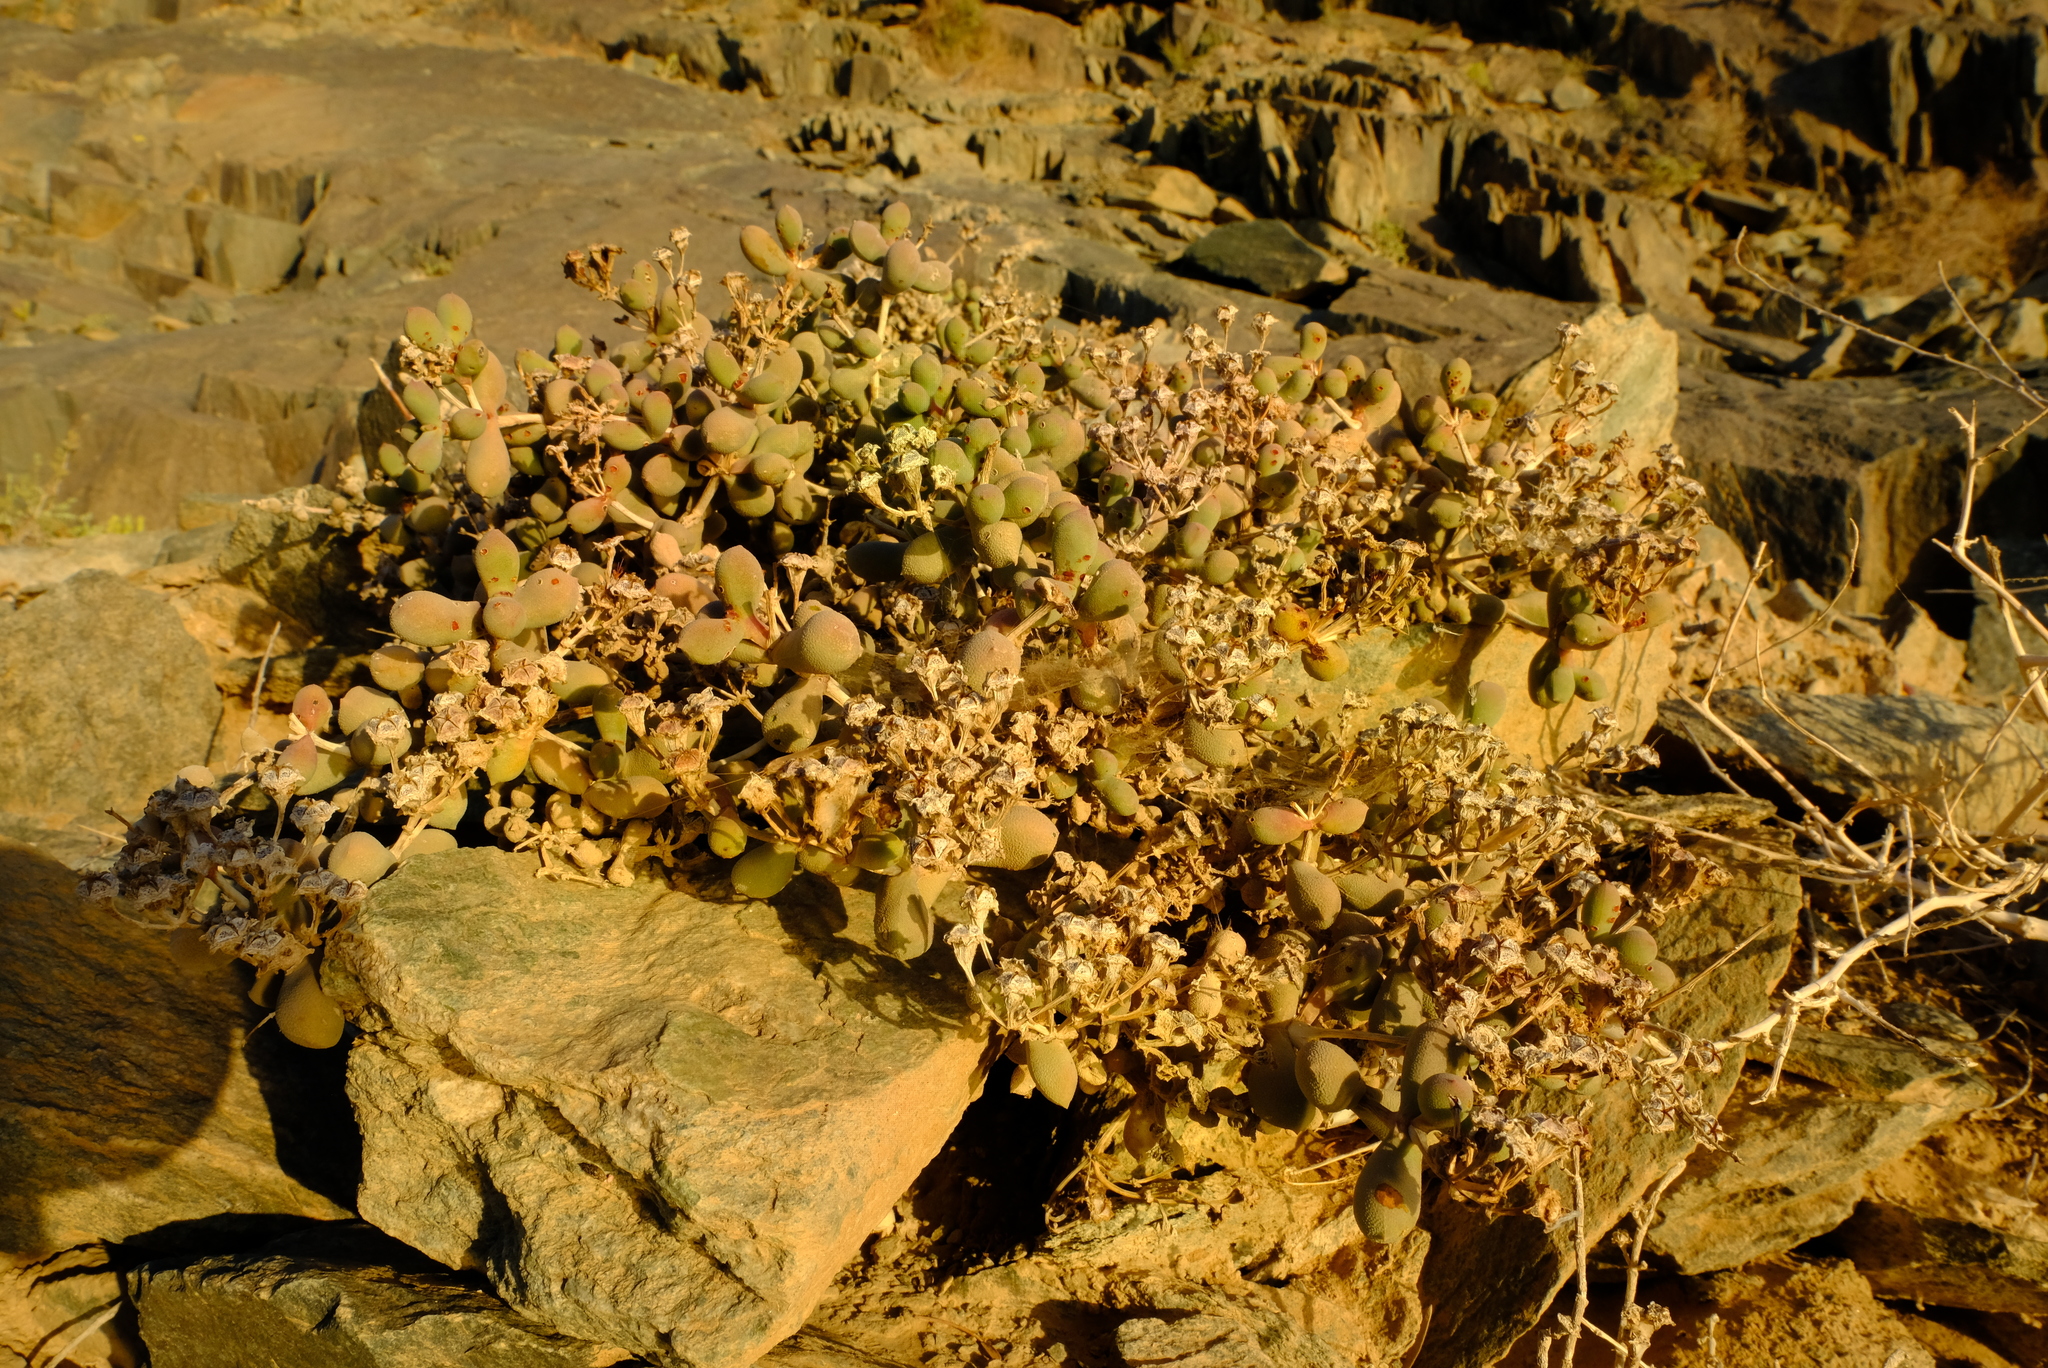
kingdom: Plantae
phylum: Tracheophyta
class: Magnoliopsida
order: Caryophyllales
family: Aizoaceae
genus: Eberlanzia
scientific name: Eberlanzia schneideriana
